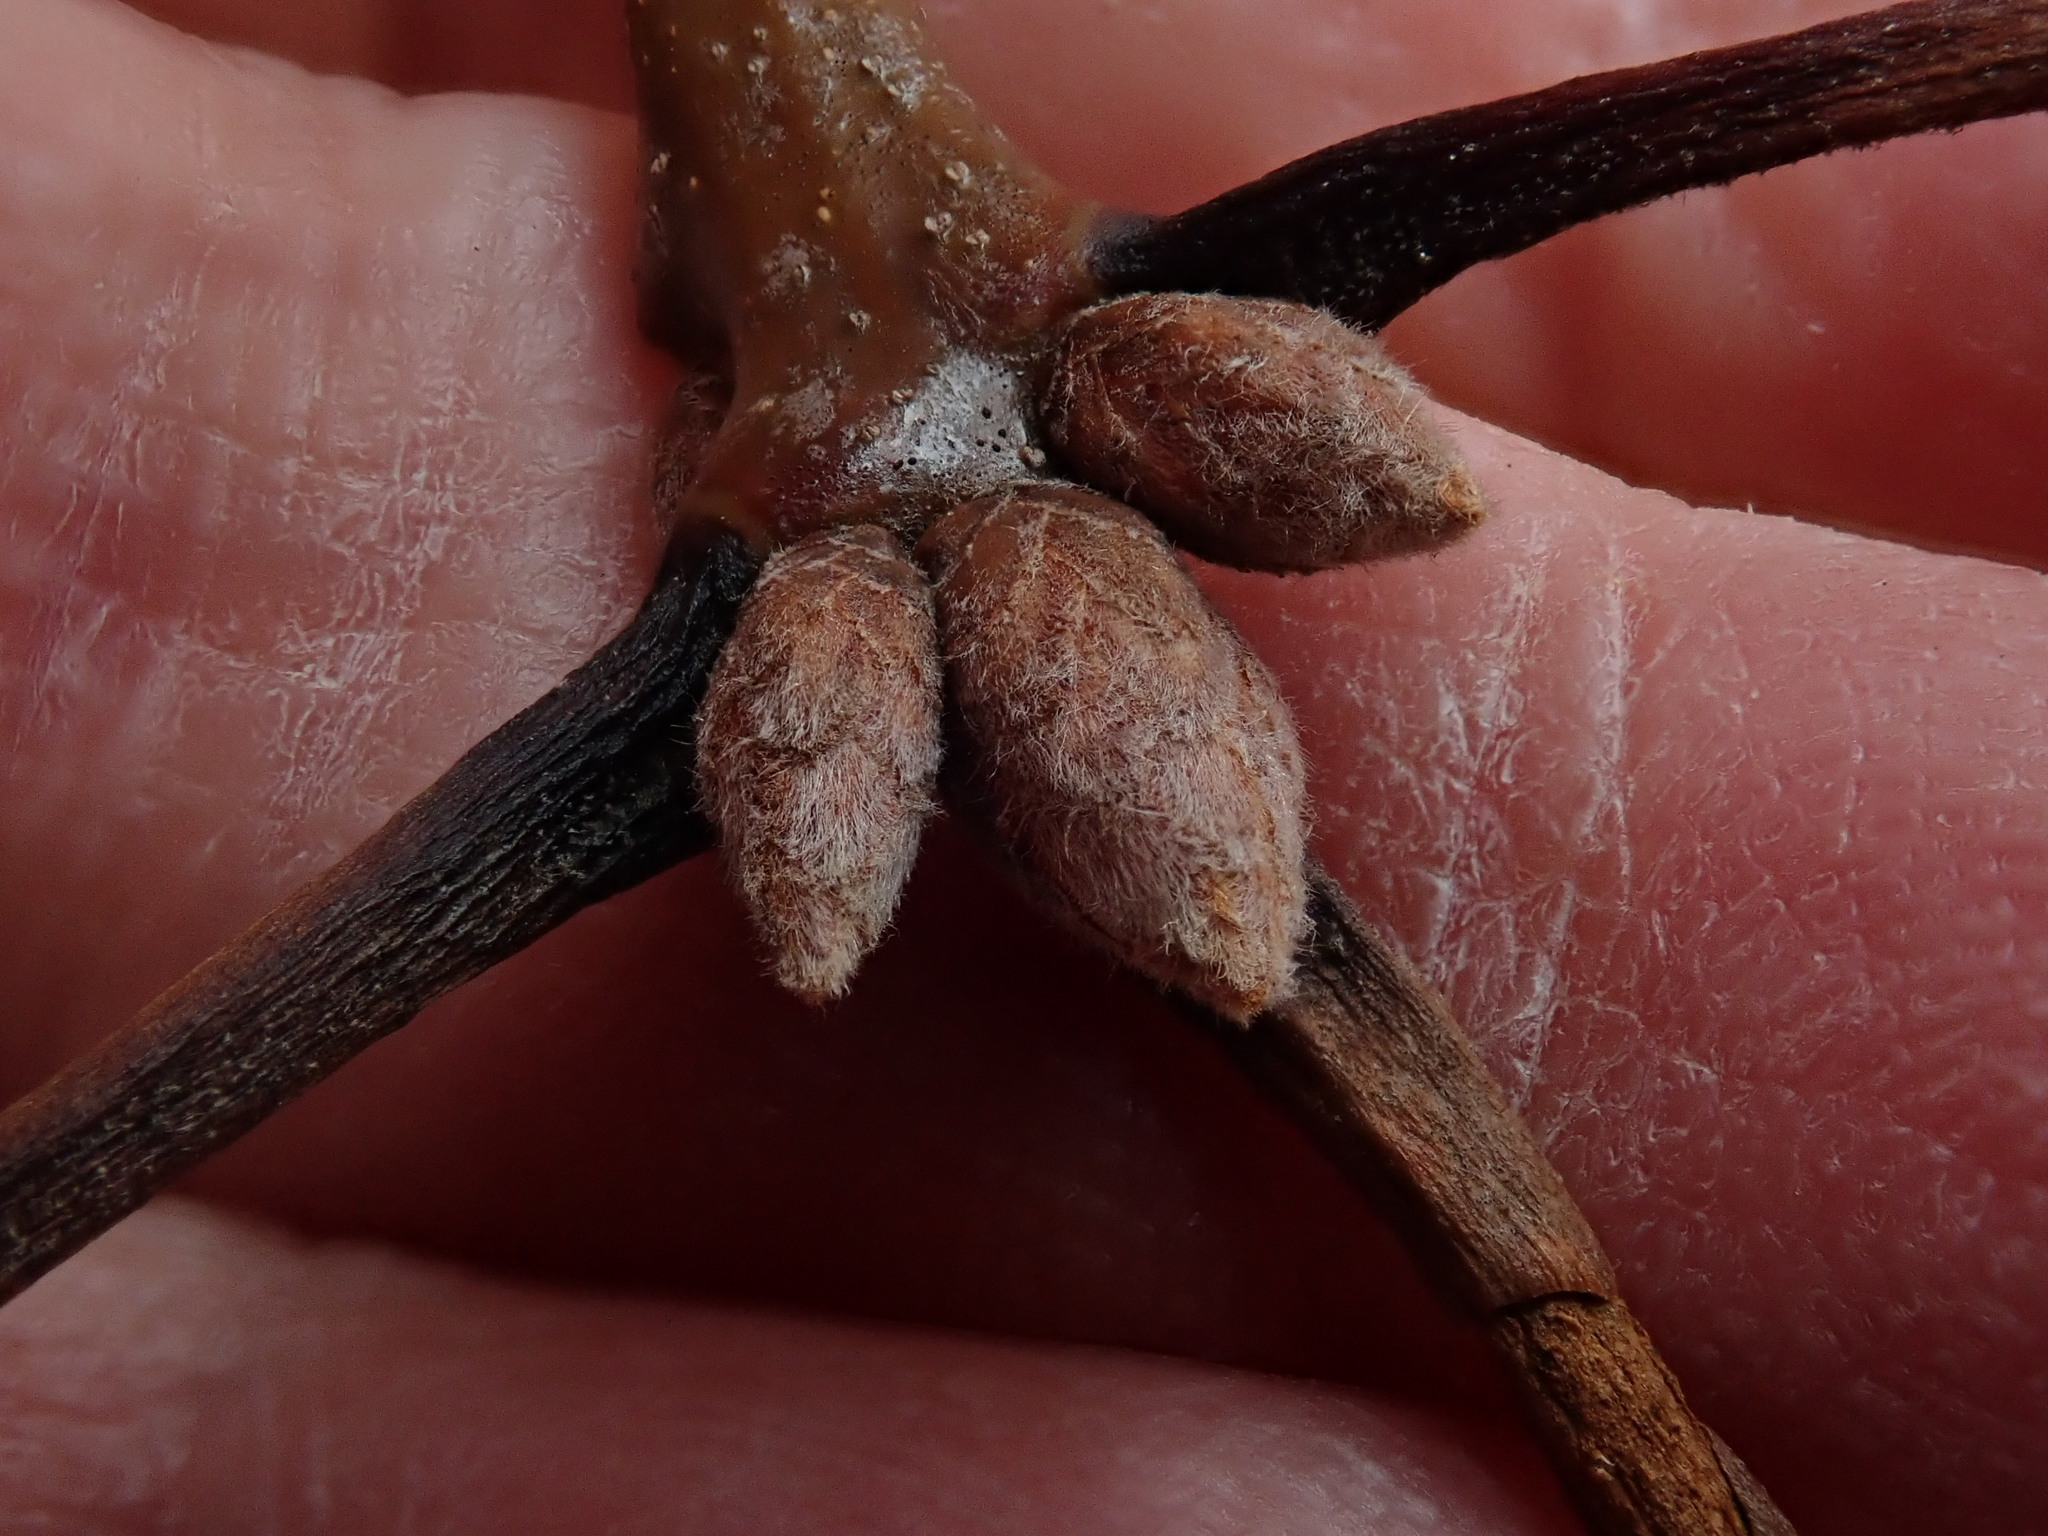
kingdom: Plantae
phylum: Tracheophyta
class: Magnoliopsida
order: Fagales
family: Fagaceae
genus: Quercus
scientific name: Quercus velutina
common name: Black oak
